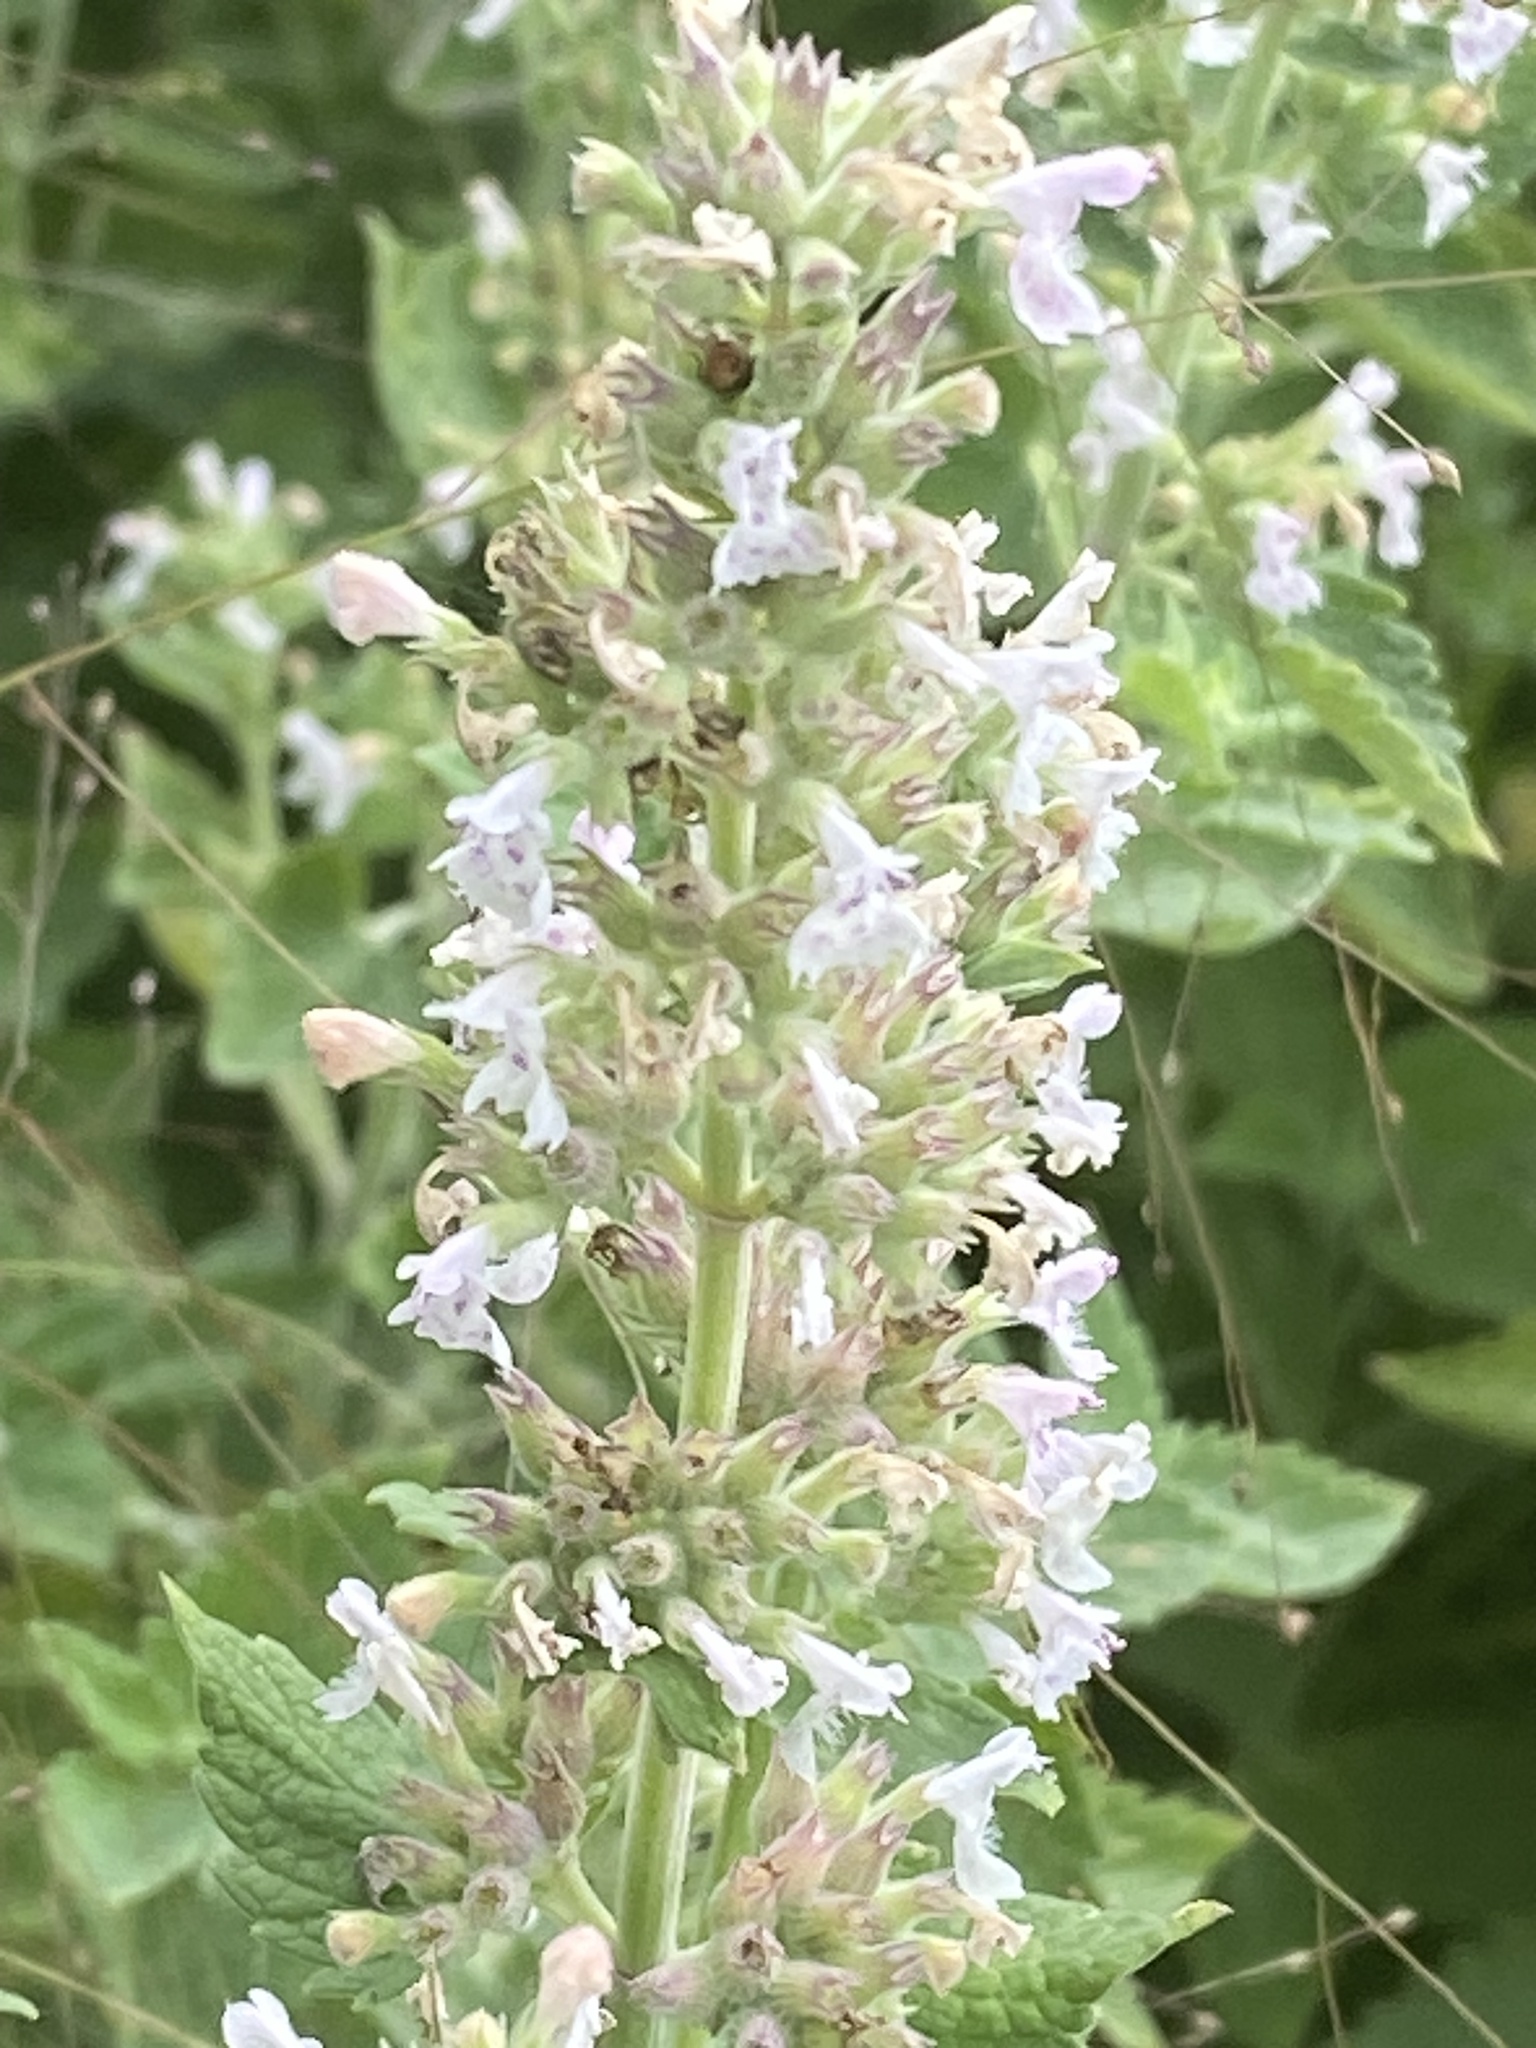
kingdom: Plantae
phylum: Tracheophyta
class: Magnoliopsida
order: Lamiales
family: Lamiaceae
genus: Nepeta
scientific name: Nepeta cataria
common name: Catnip
